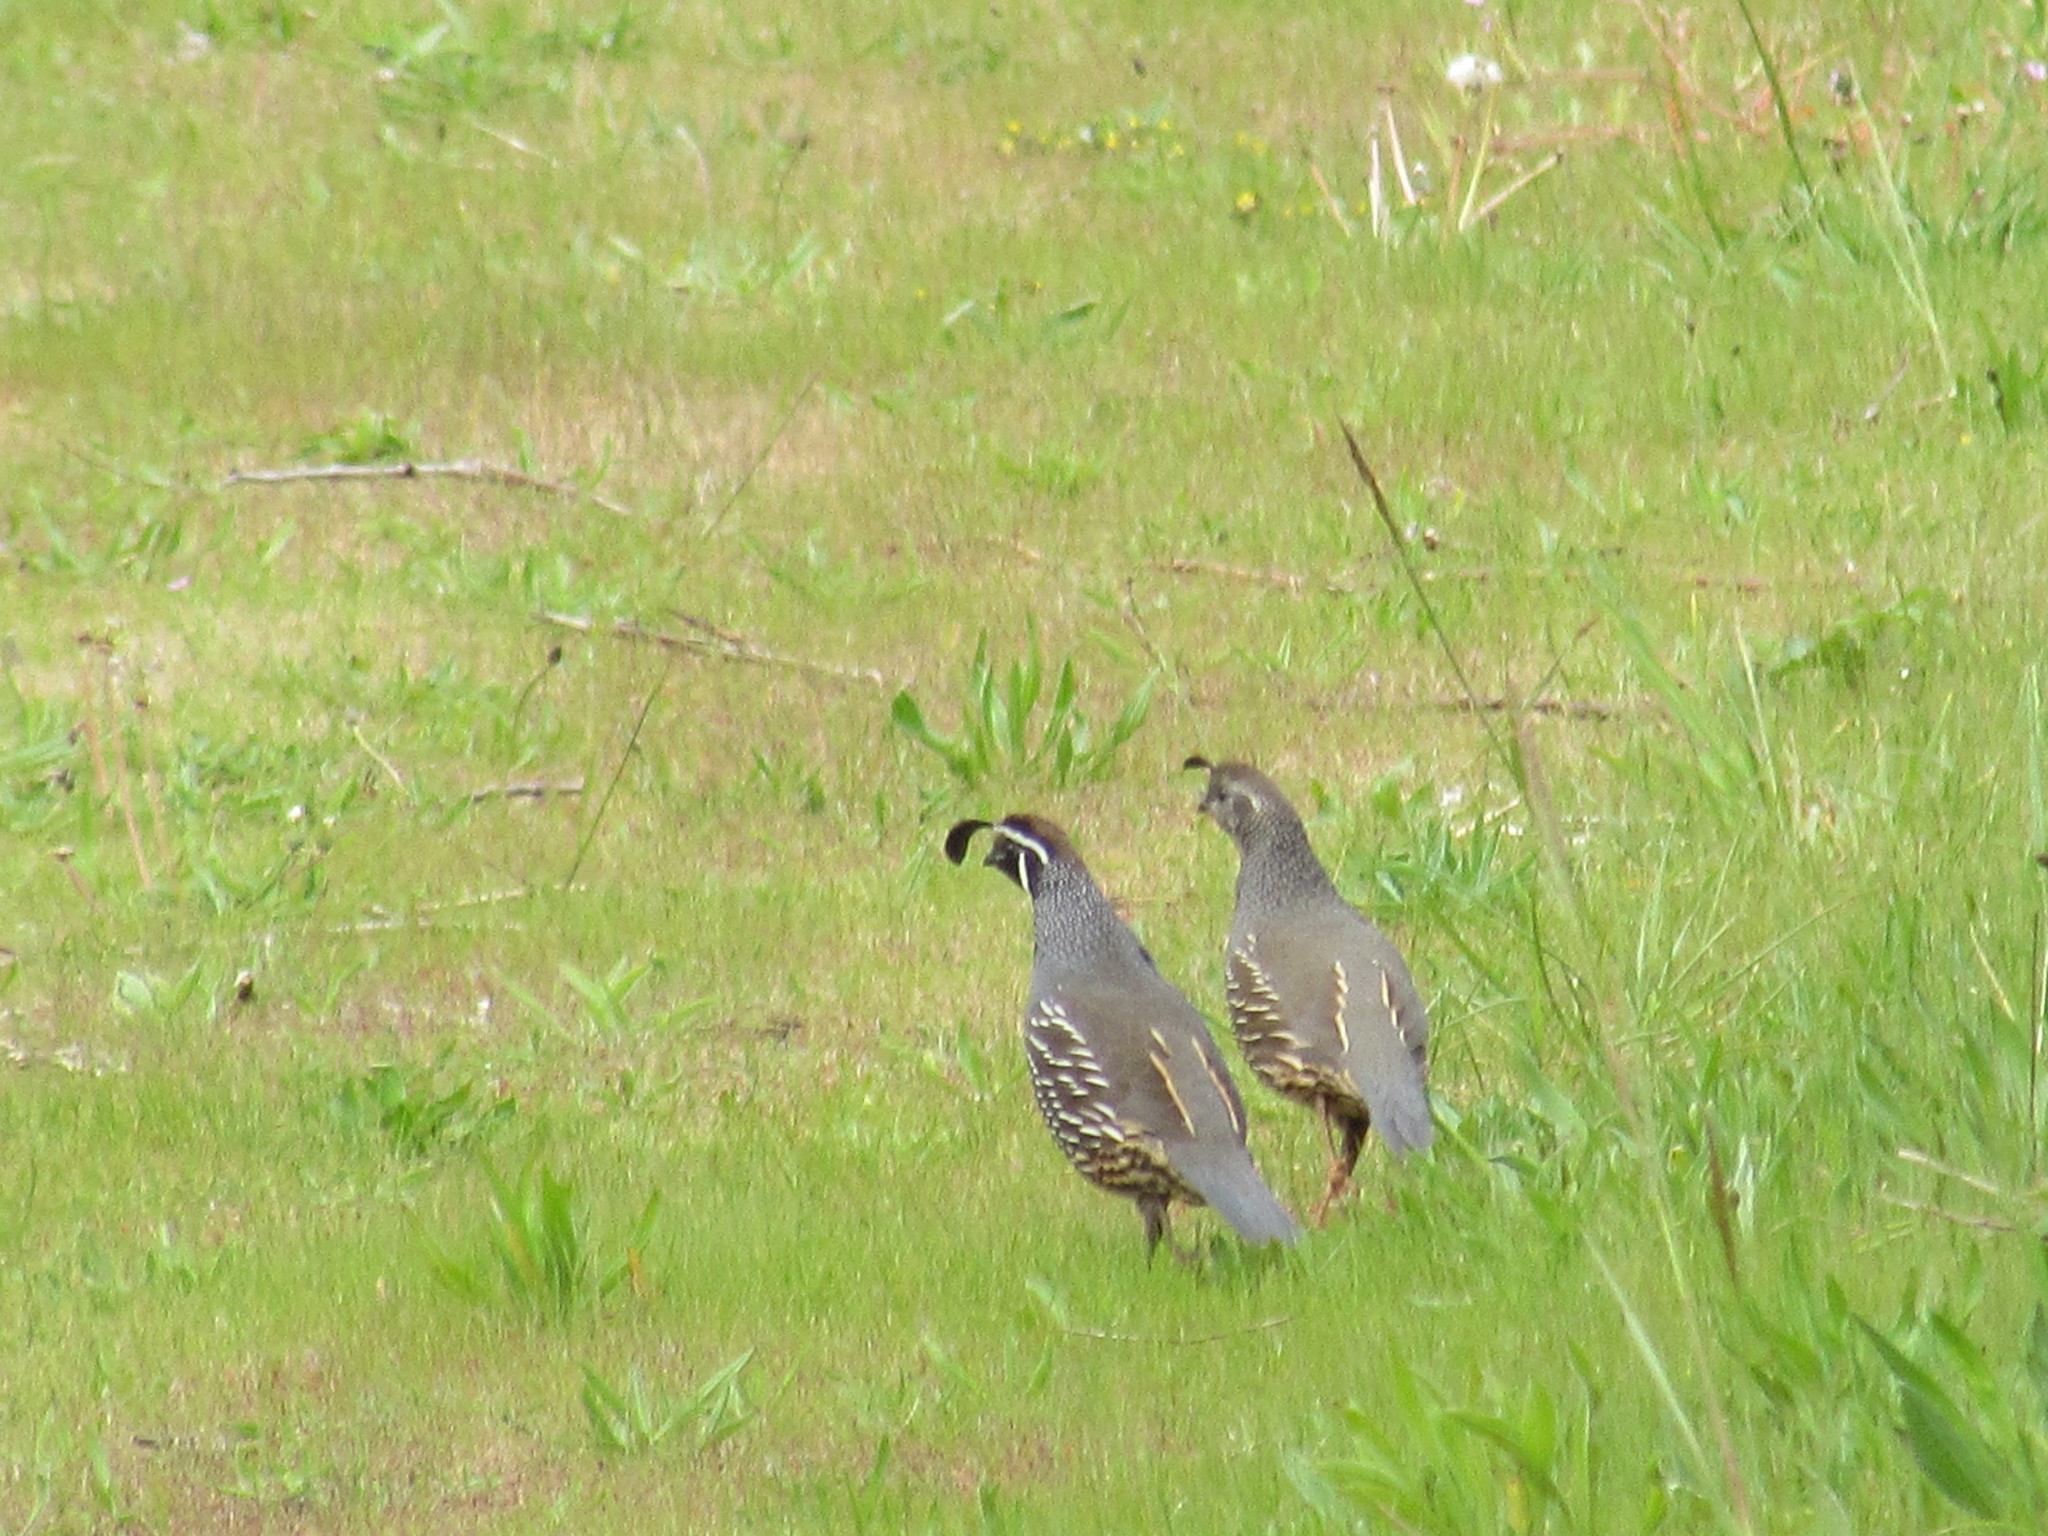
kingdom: Animalia
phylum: Chordata
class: Aves
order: Galliformes
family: Odontophoridae
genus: Callipepla
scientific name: Callipepla californica
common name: California quail
